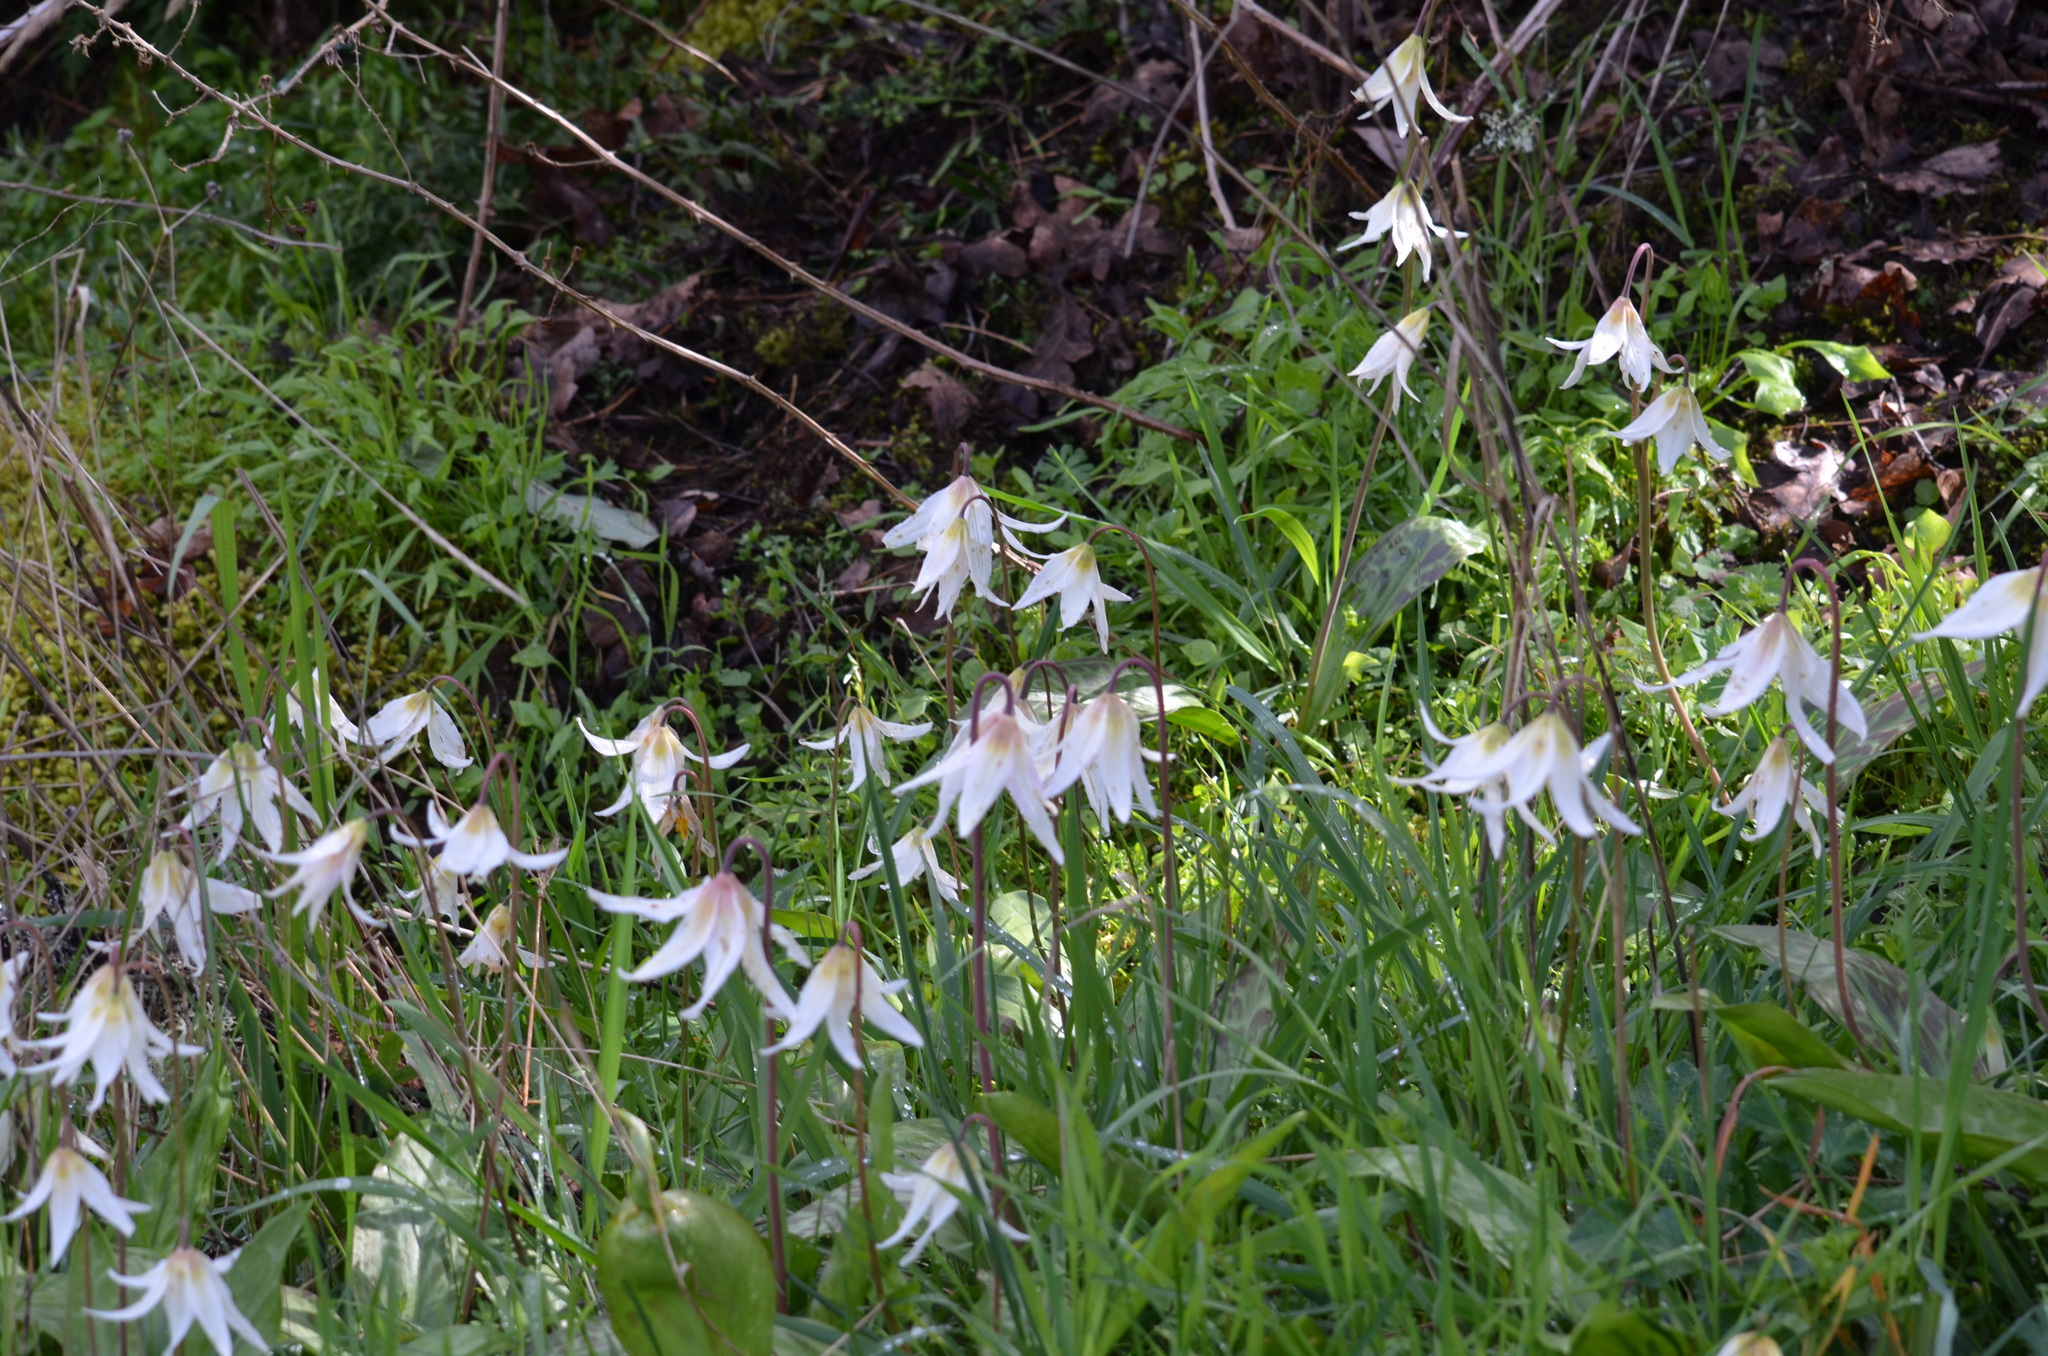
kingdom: Plantae
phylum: Tracheophyta
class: Liliopsida
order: Liliales
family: Liliaceae
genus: Erythronium
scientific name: Erythronium oregonum
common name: Giant adder's-tongue
